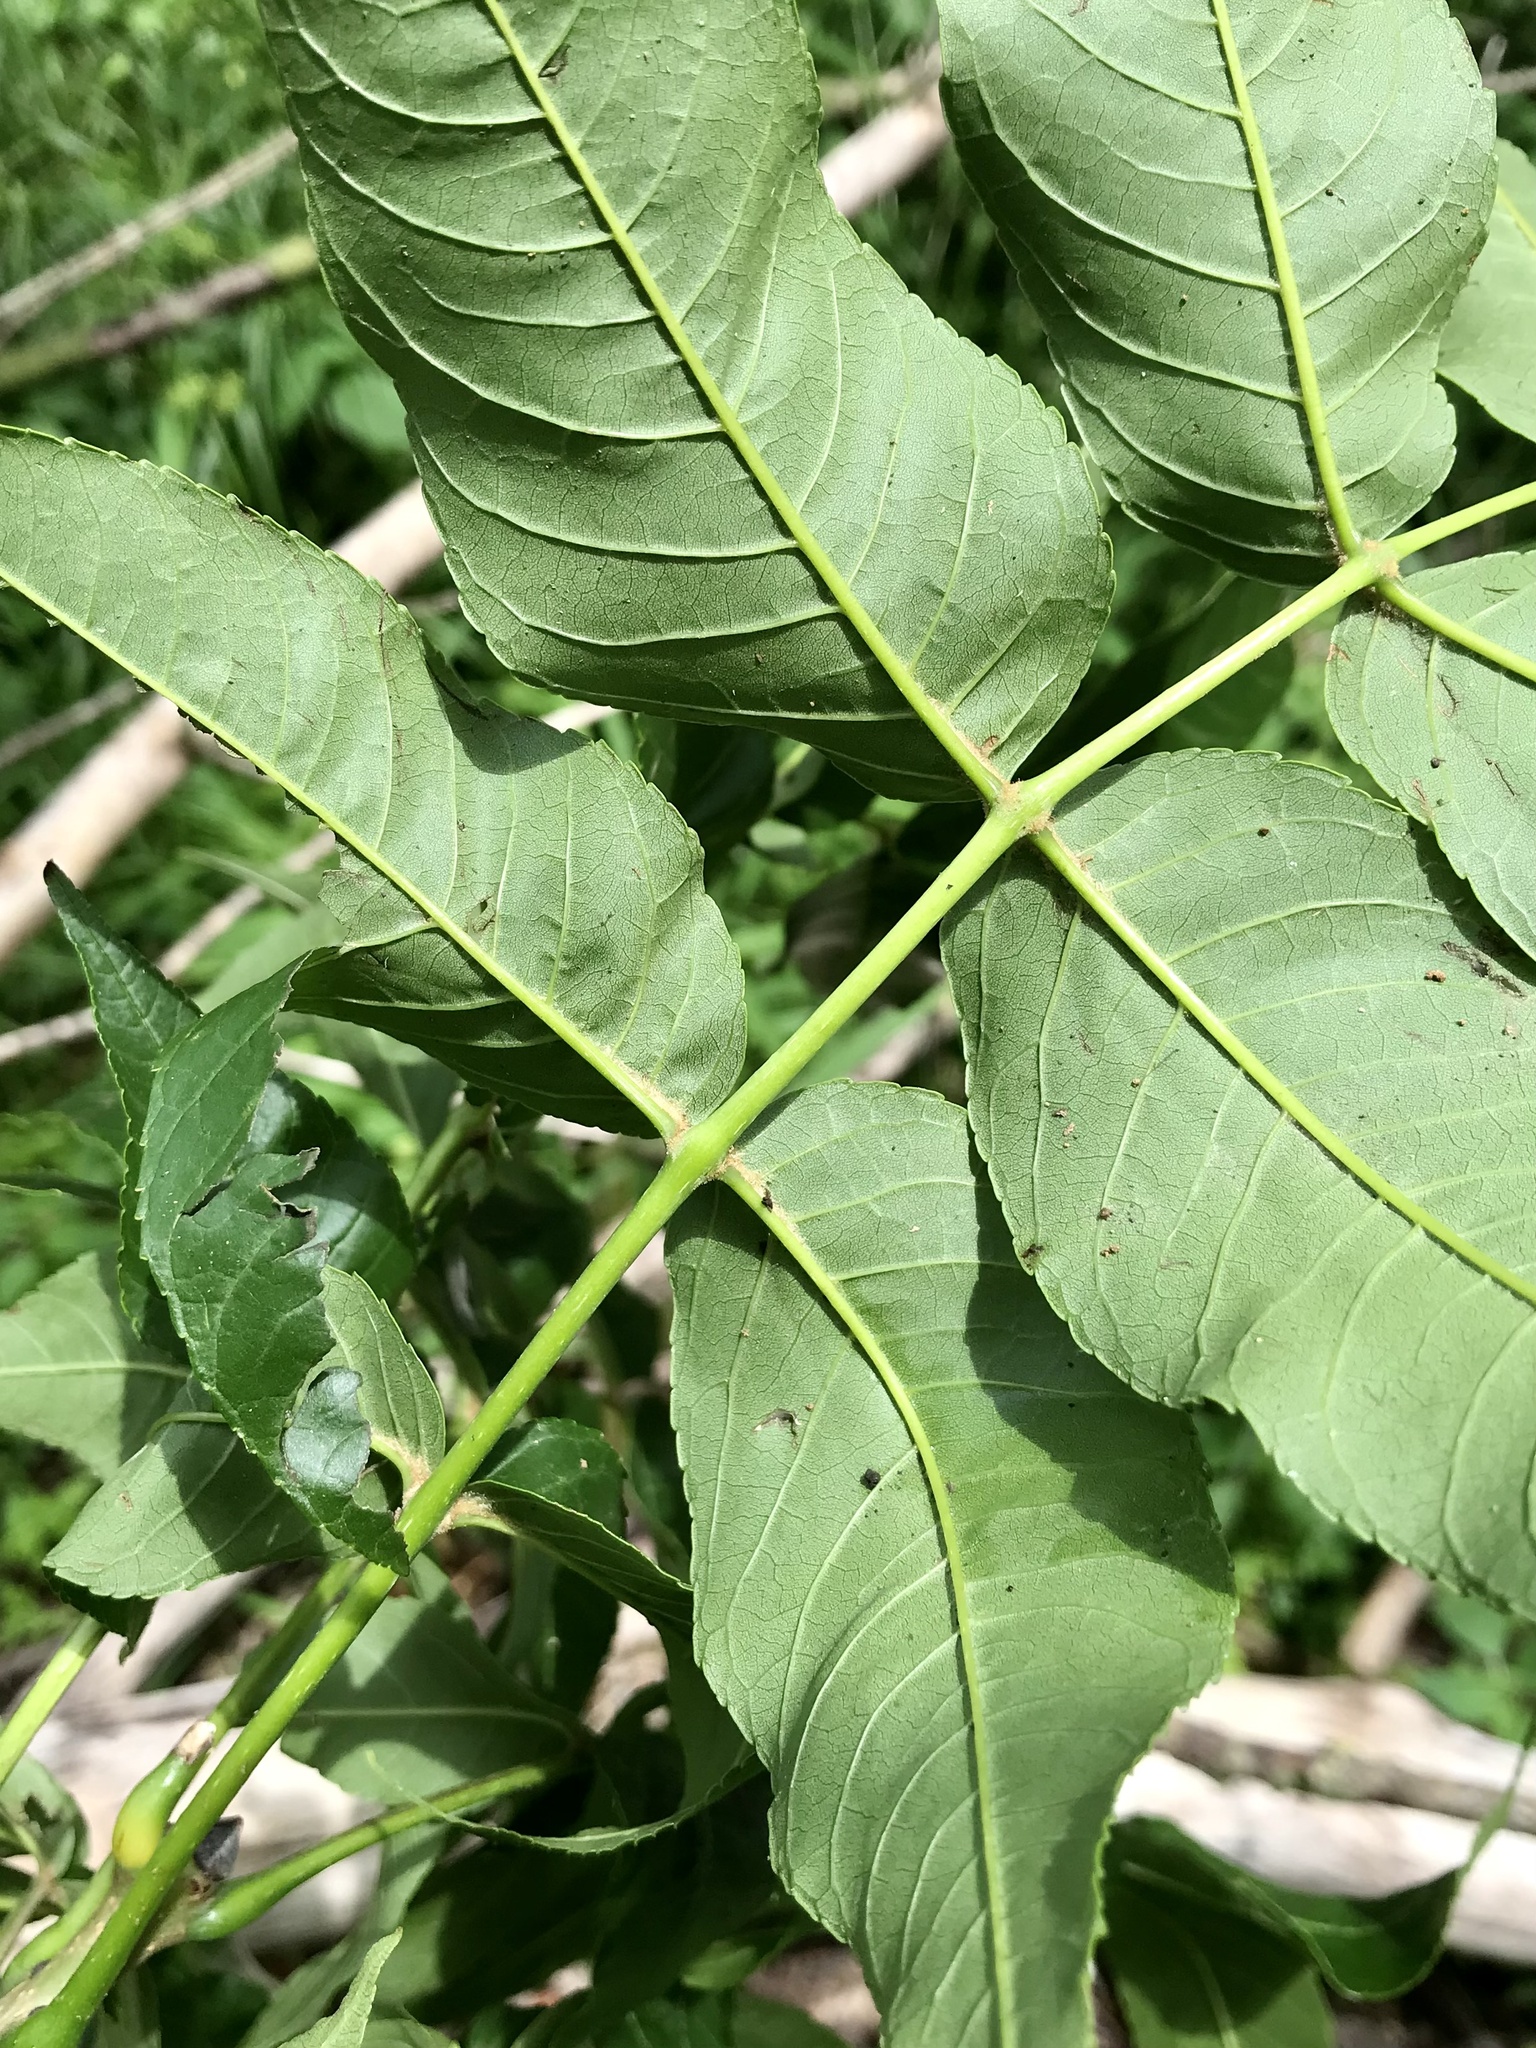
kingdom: Plantae
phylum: Tracheophyta
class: Magnoliopsida
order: Lamiales
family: Oleaceae
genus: Fraxinus
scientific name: Fraxinus nigra
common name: Black ash
